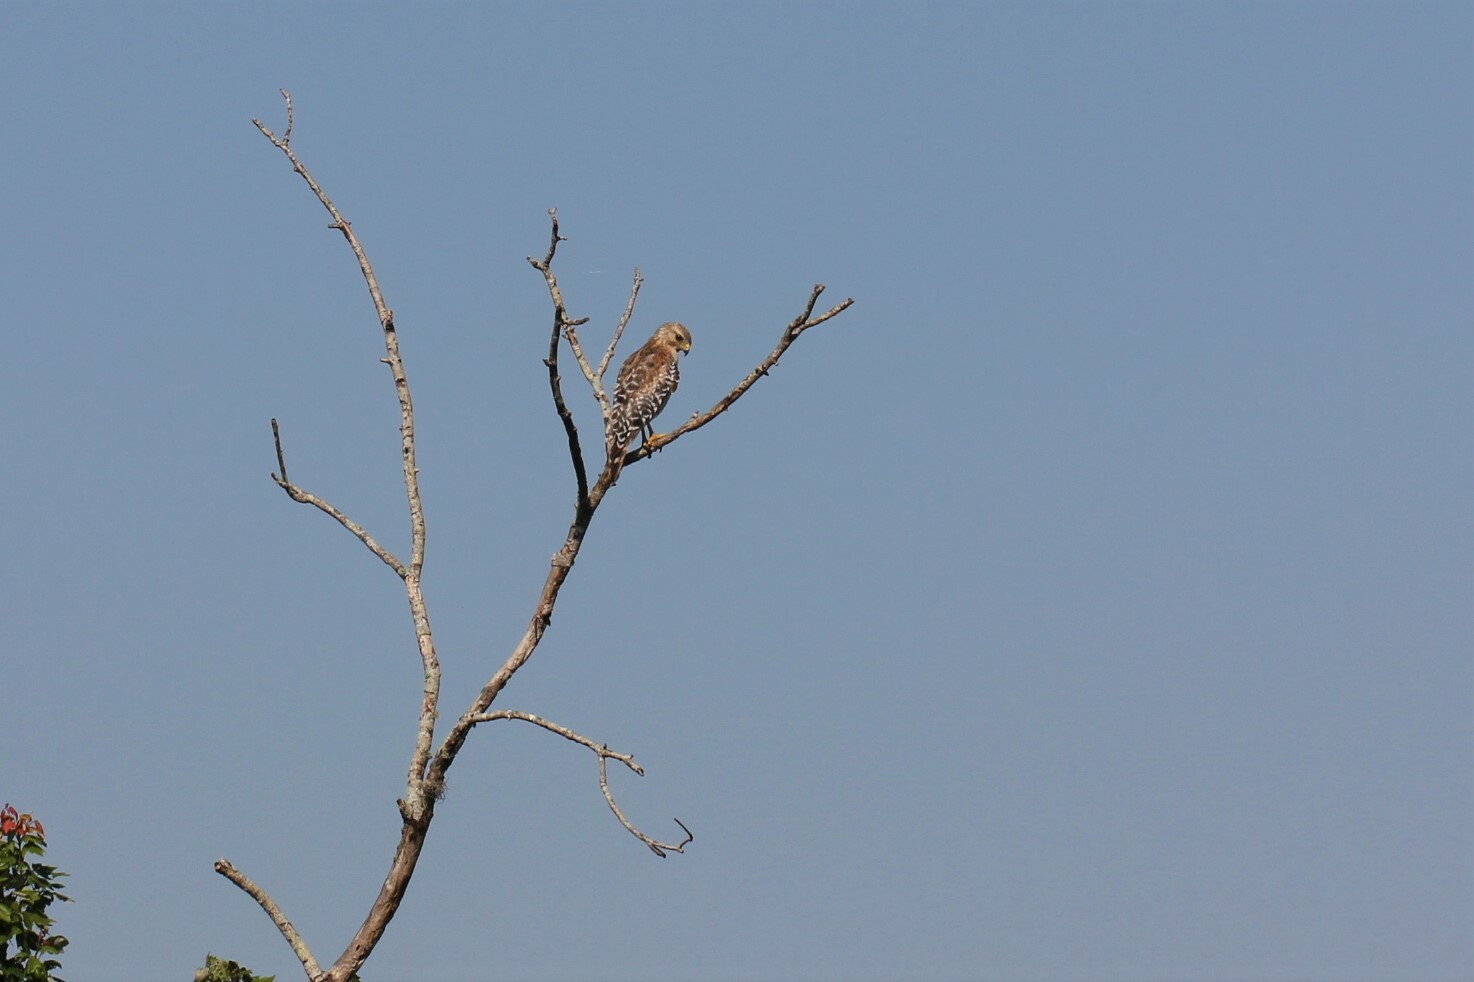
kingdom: Animalia
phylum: Chordata
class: Aves
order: Accipitriformes
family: Accipitridae
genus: Buteo
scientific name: Buteo lineatus
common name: Red-shouldered hawk
